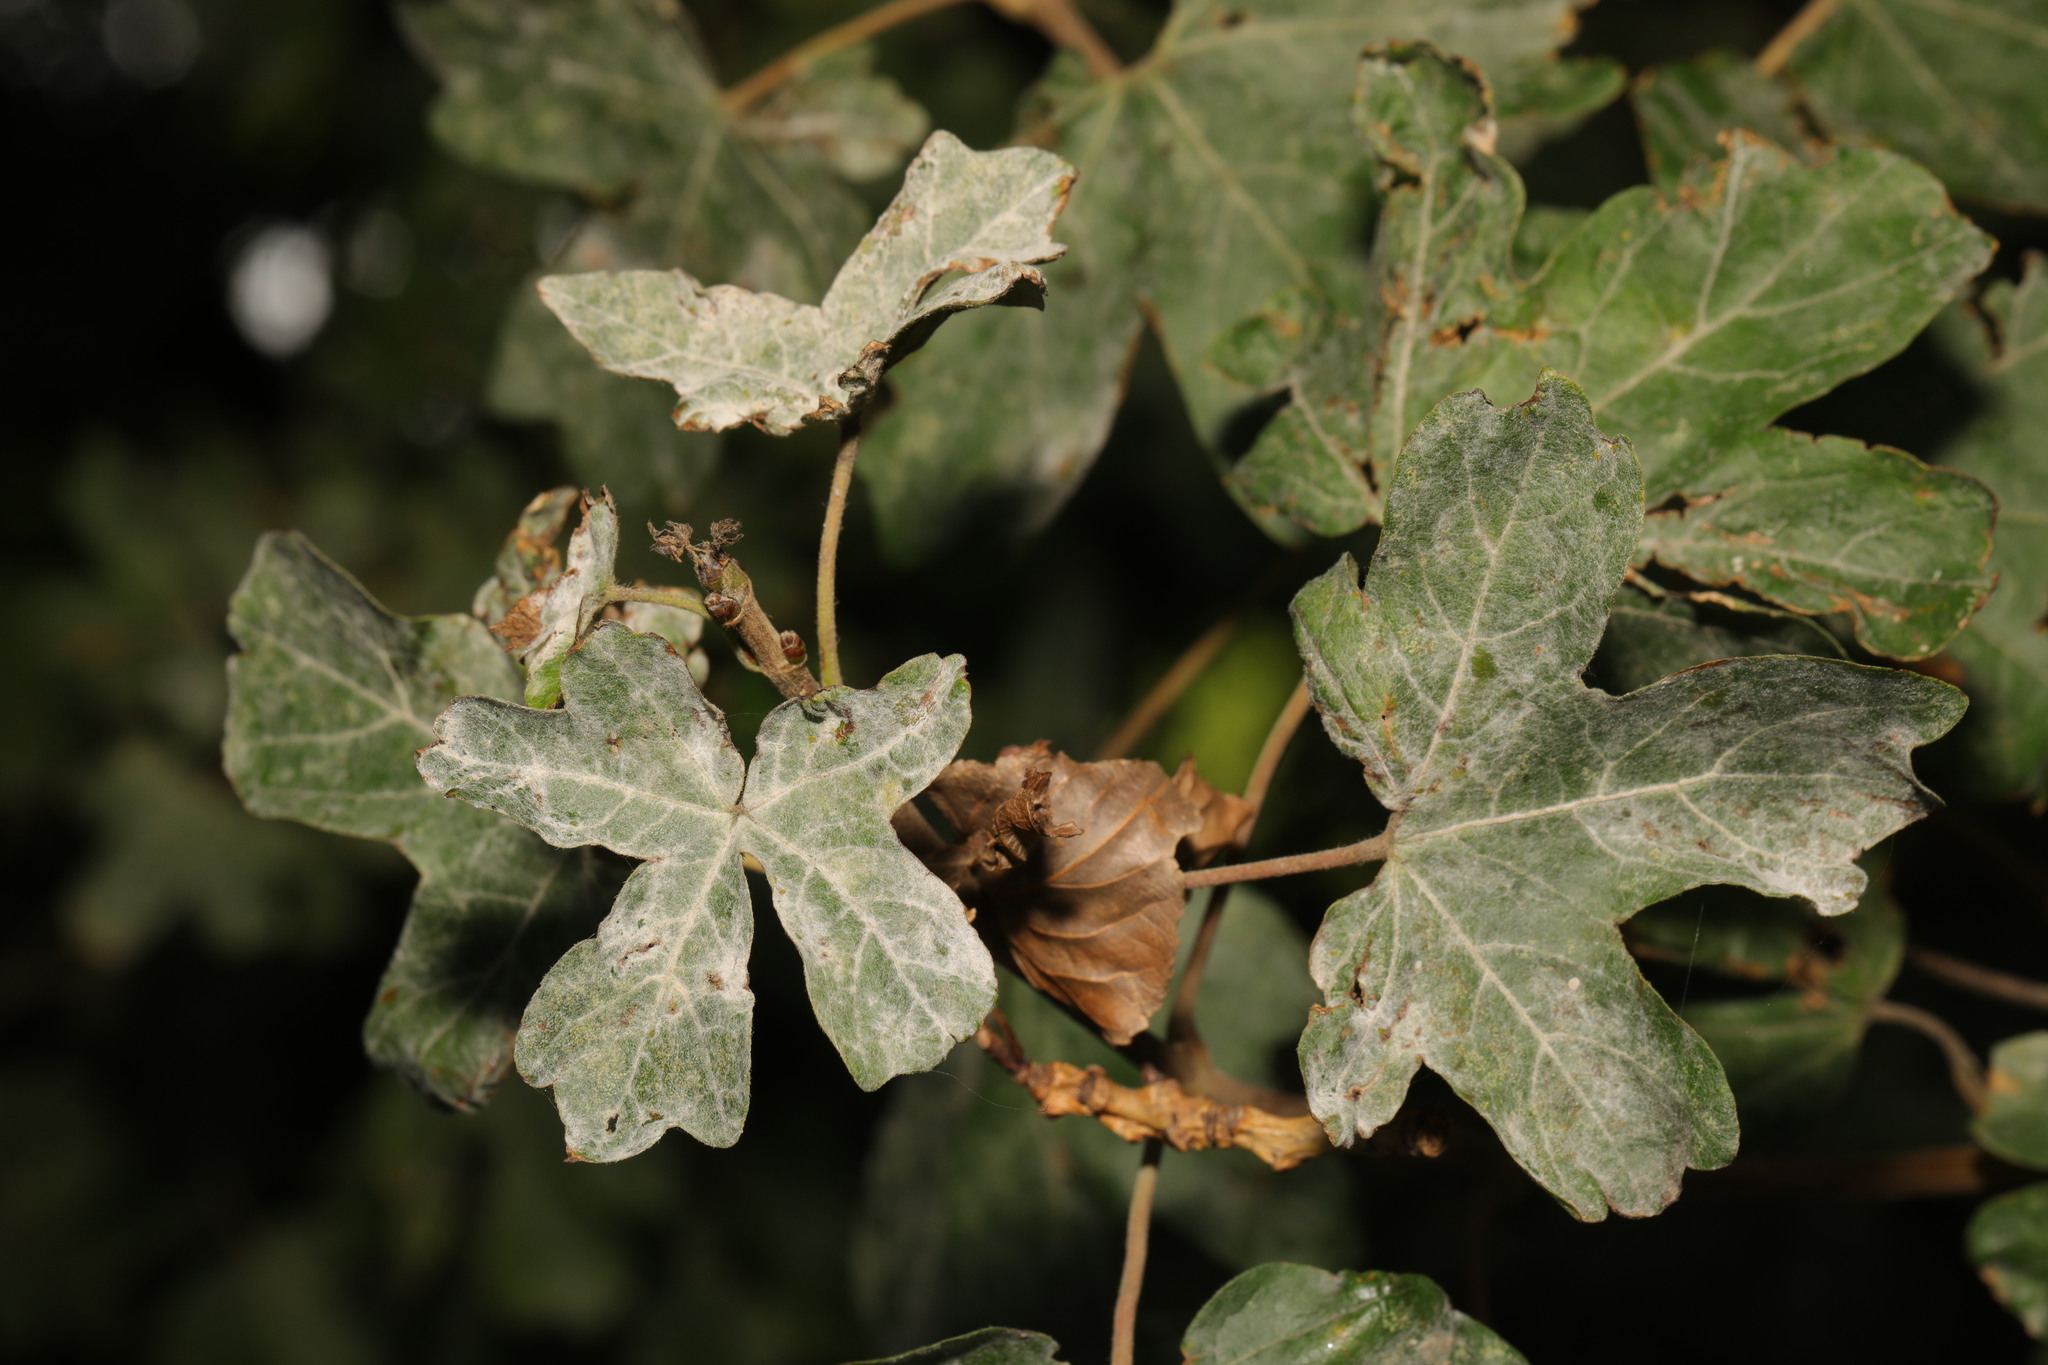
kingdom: Fungi
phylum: Ascomycota
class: Leotiomycetes
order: Helotiales
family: Erysiphaceae
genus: Sawadaea
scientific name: Sawadaea bicornis
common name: Maple mildew
